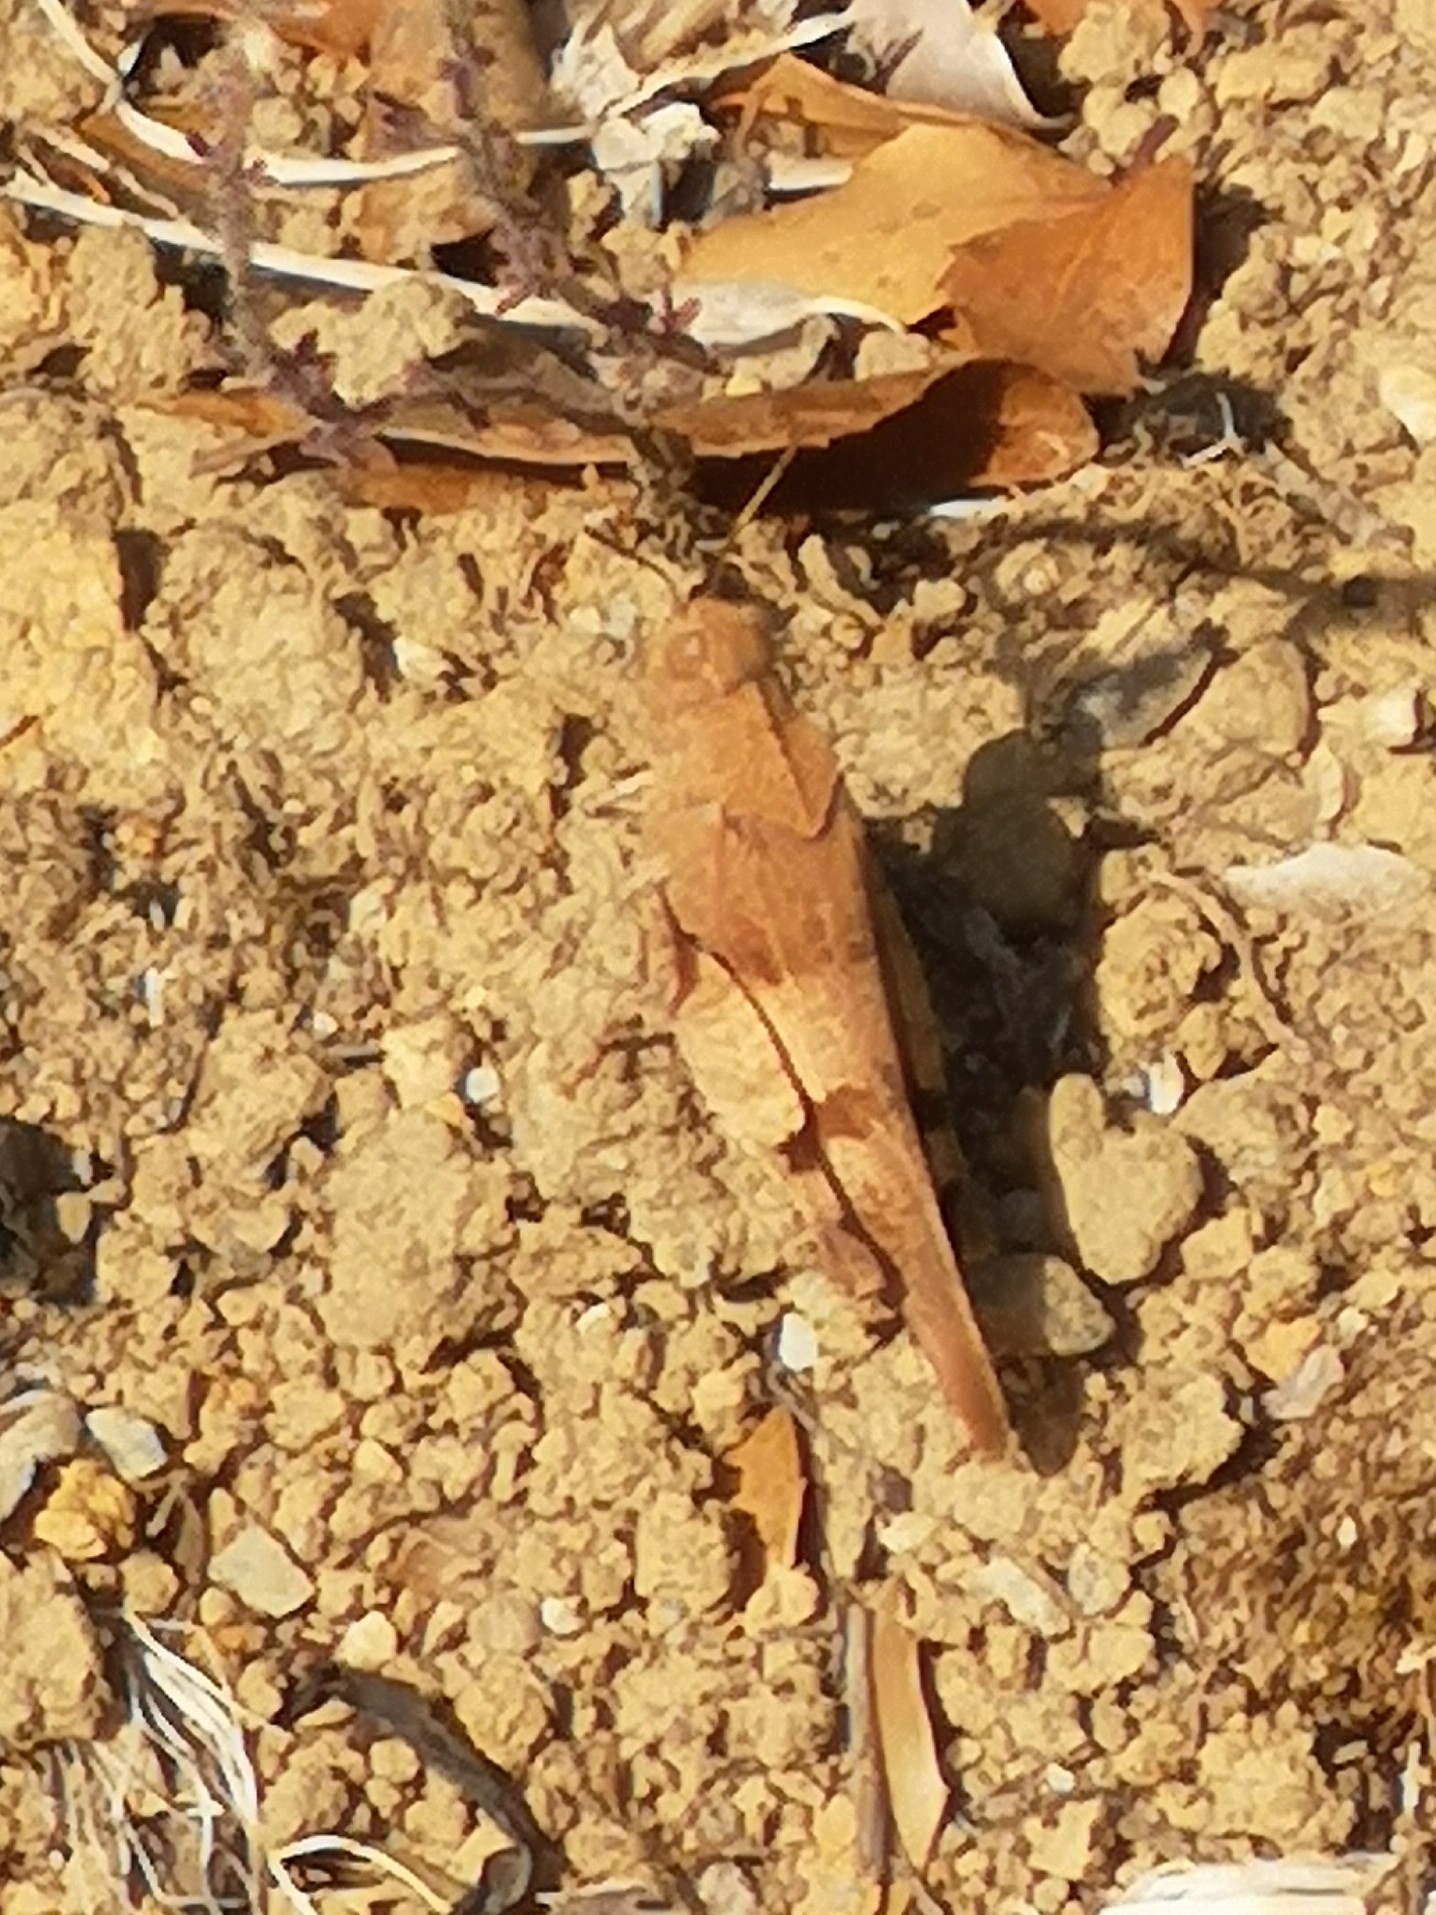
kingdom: Animalia
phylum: Arthropoda
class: Insecta
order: Orthoptera
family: Acrididae
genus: Oedipoda
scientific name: Oedipoda caerulescens
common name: Blue-winged grasshopper
